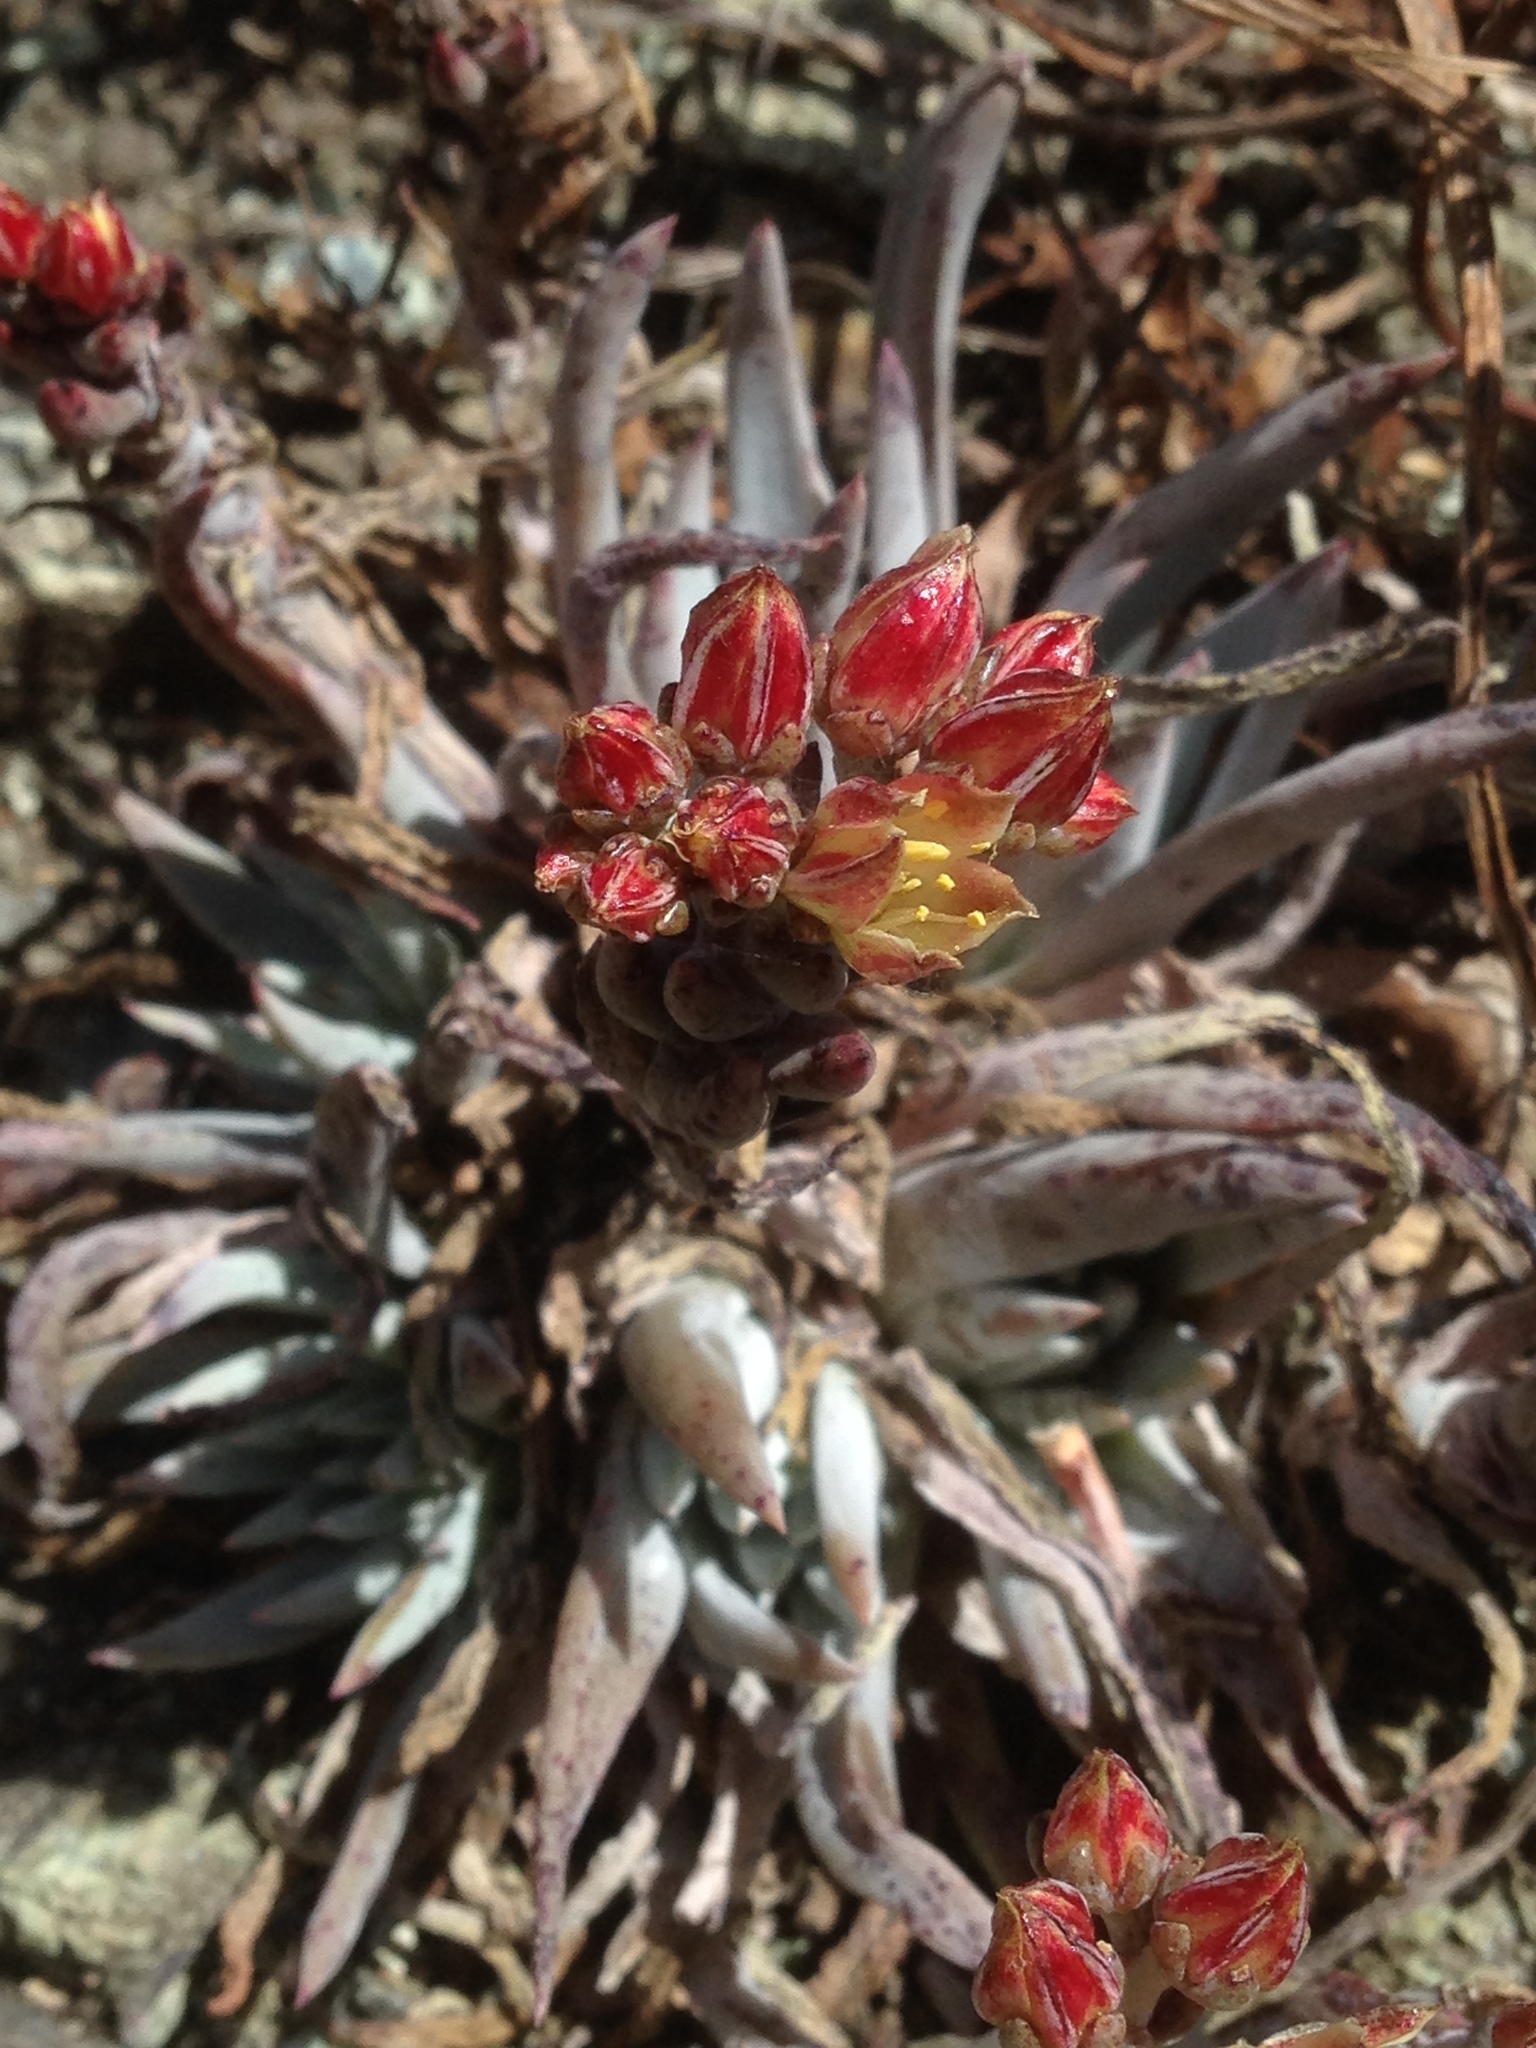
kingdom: Plantae
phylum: Tracheophyta
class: Magnoliopsida
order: Saxifragales
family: Crassulaceae
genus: Dudleya
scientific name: Dudleya abramsii
